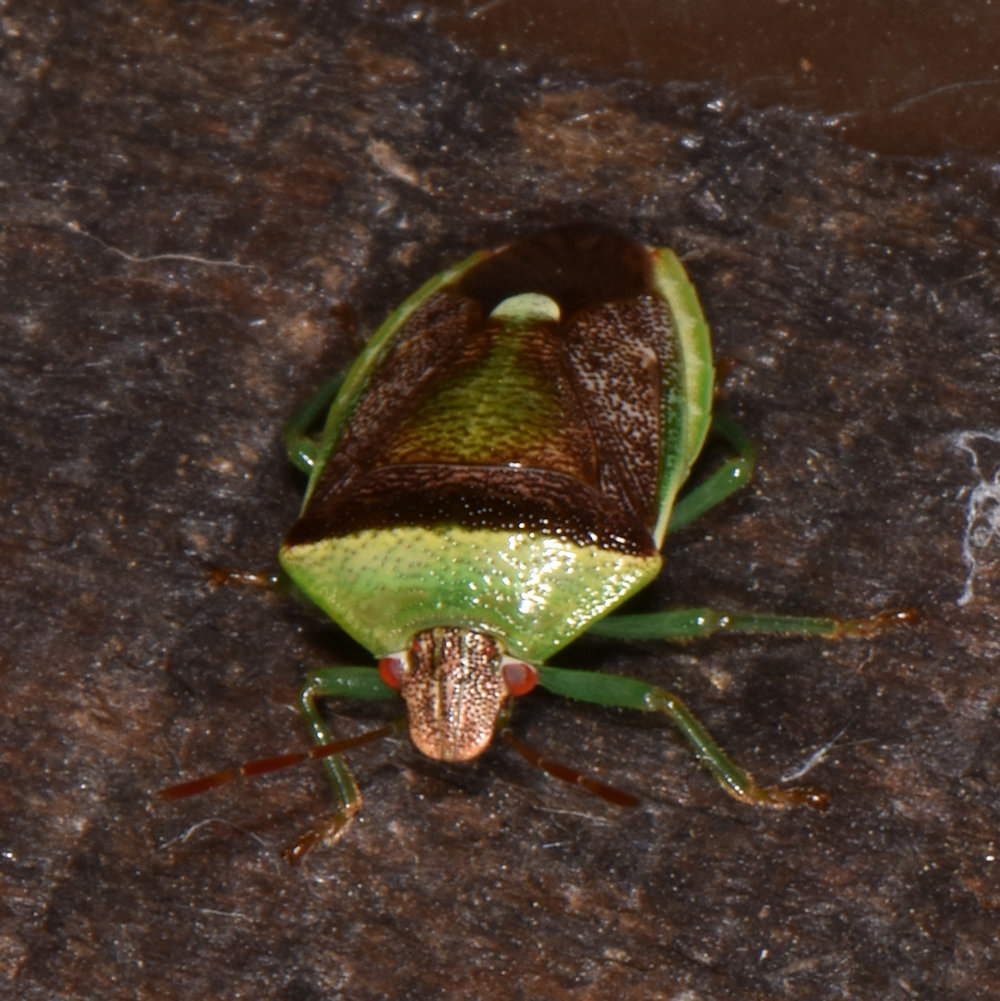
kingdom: Animalia
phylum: Arthropoda
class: Insecta
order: Hemiptera
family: Pentatomidae
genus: Banasa
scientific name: Banasa dimidiata
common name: Green burgundy stink bug
